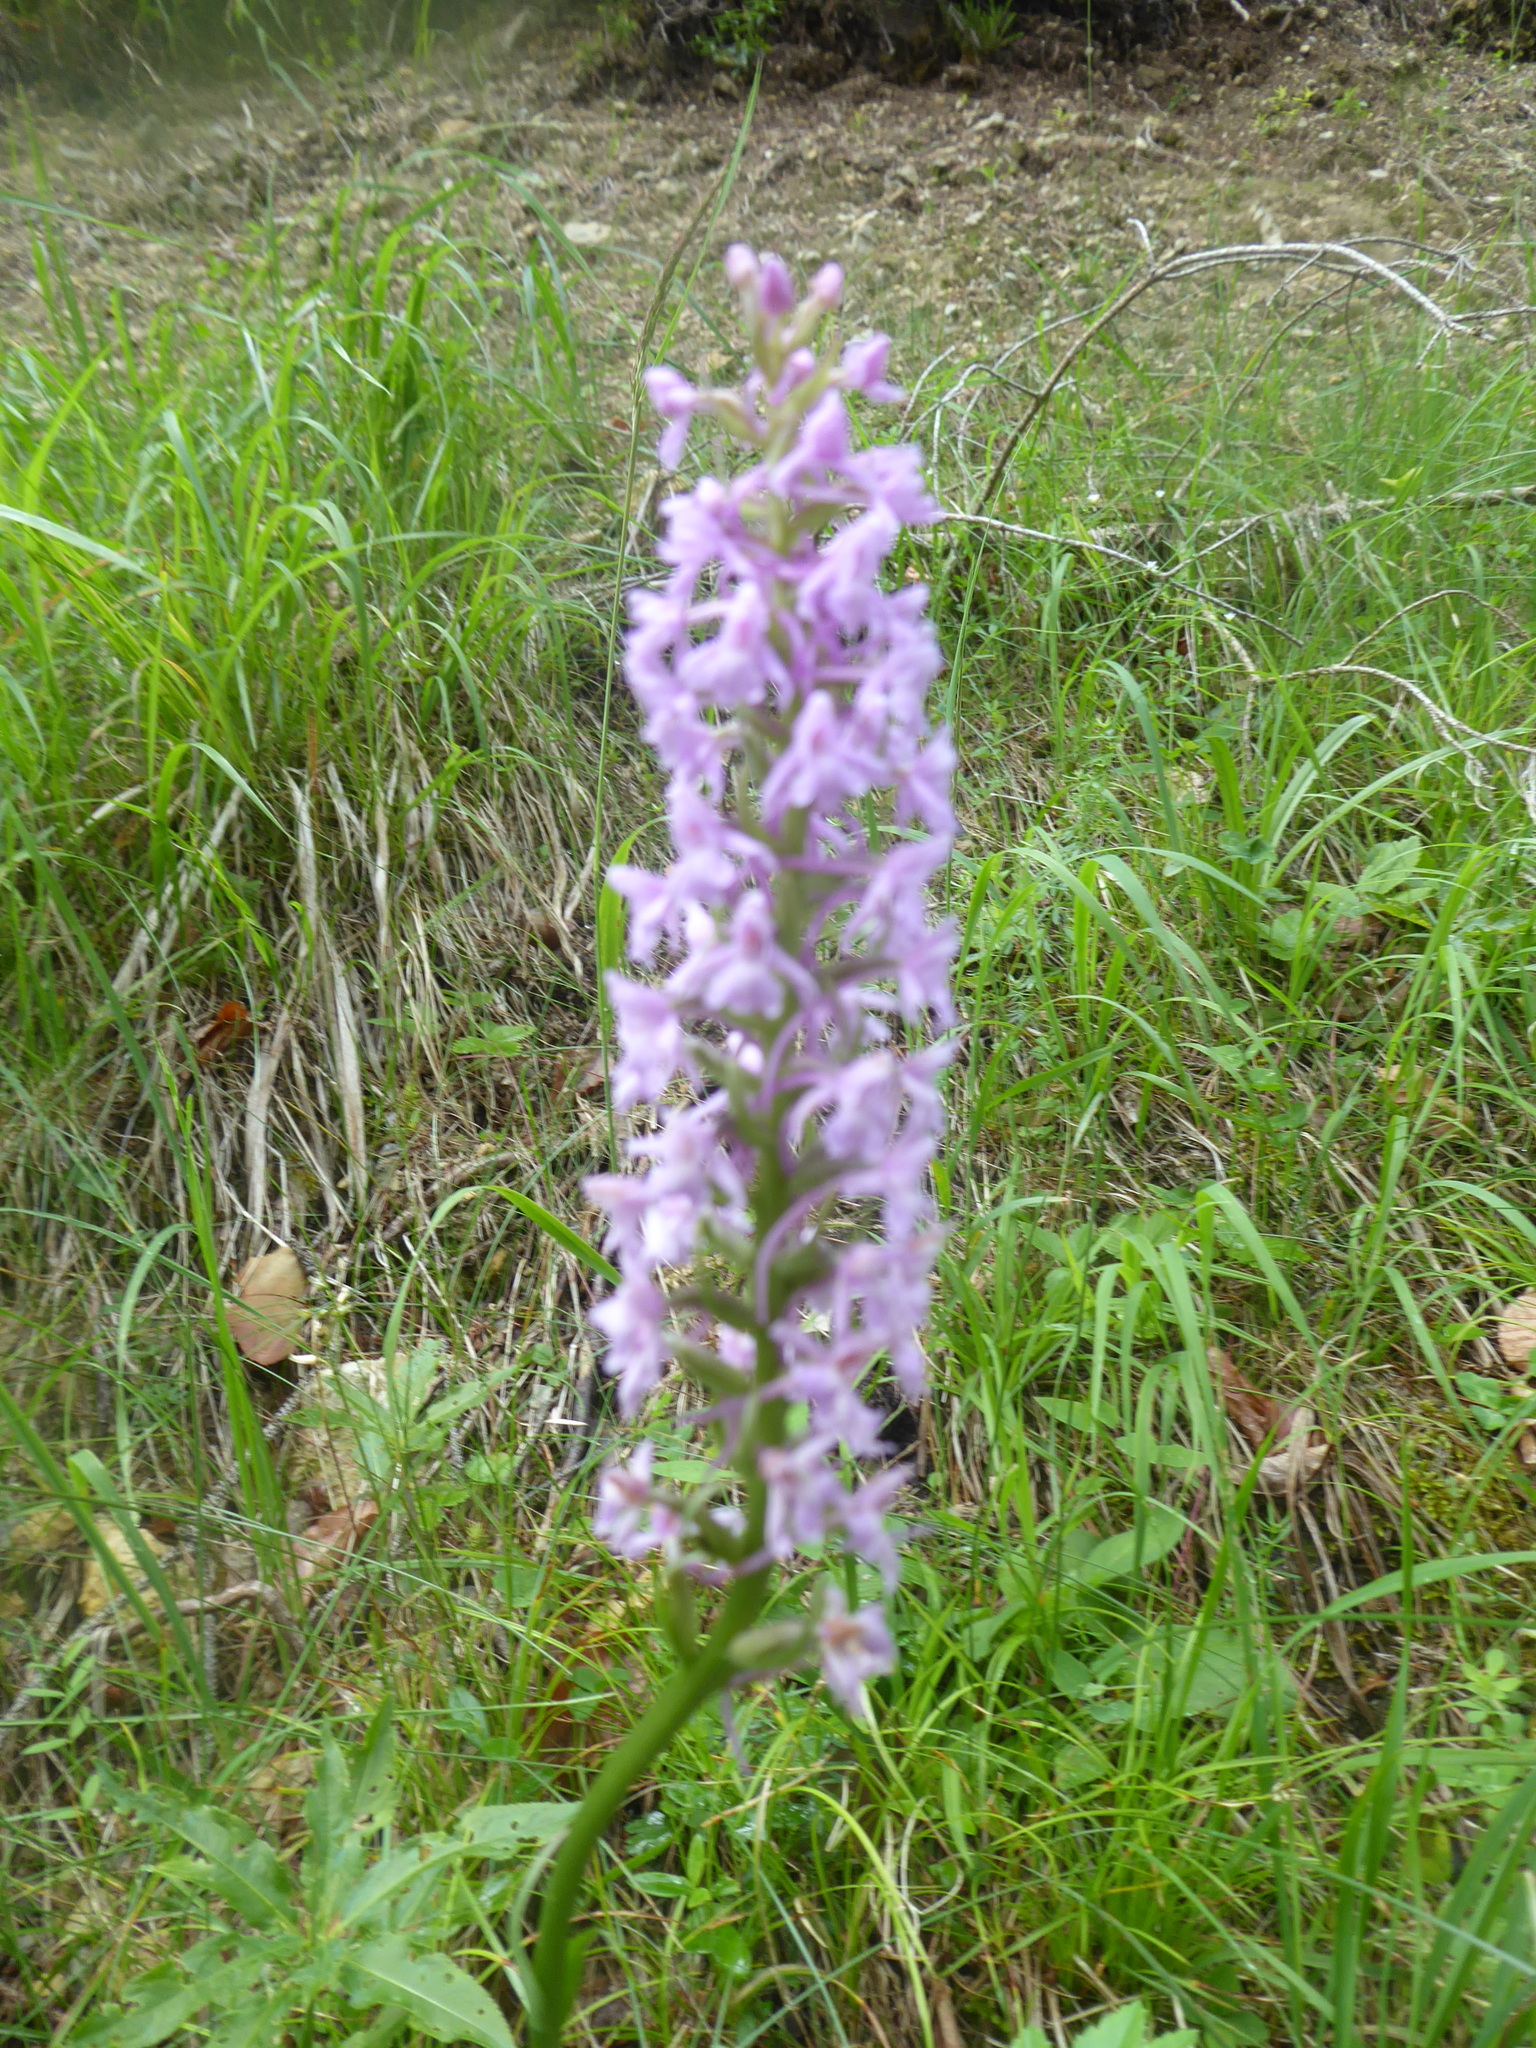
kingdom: Plantae
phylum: Tracheophyta
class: Liliopsida
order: Asparagales
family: Orchidaceae
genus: Gymnadenia
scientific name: Gymnadenia conopsea
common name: Fragrant orchid
